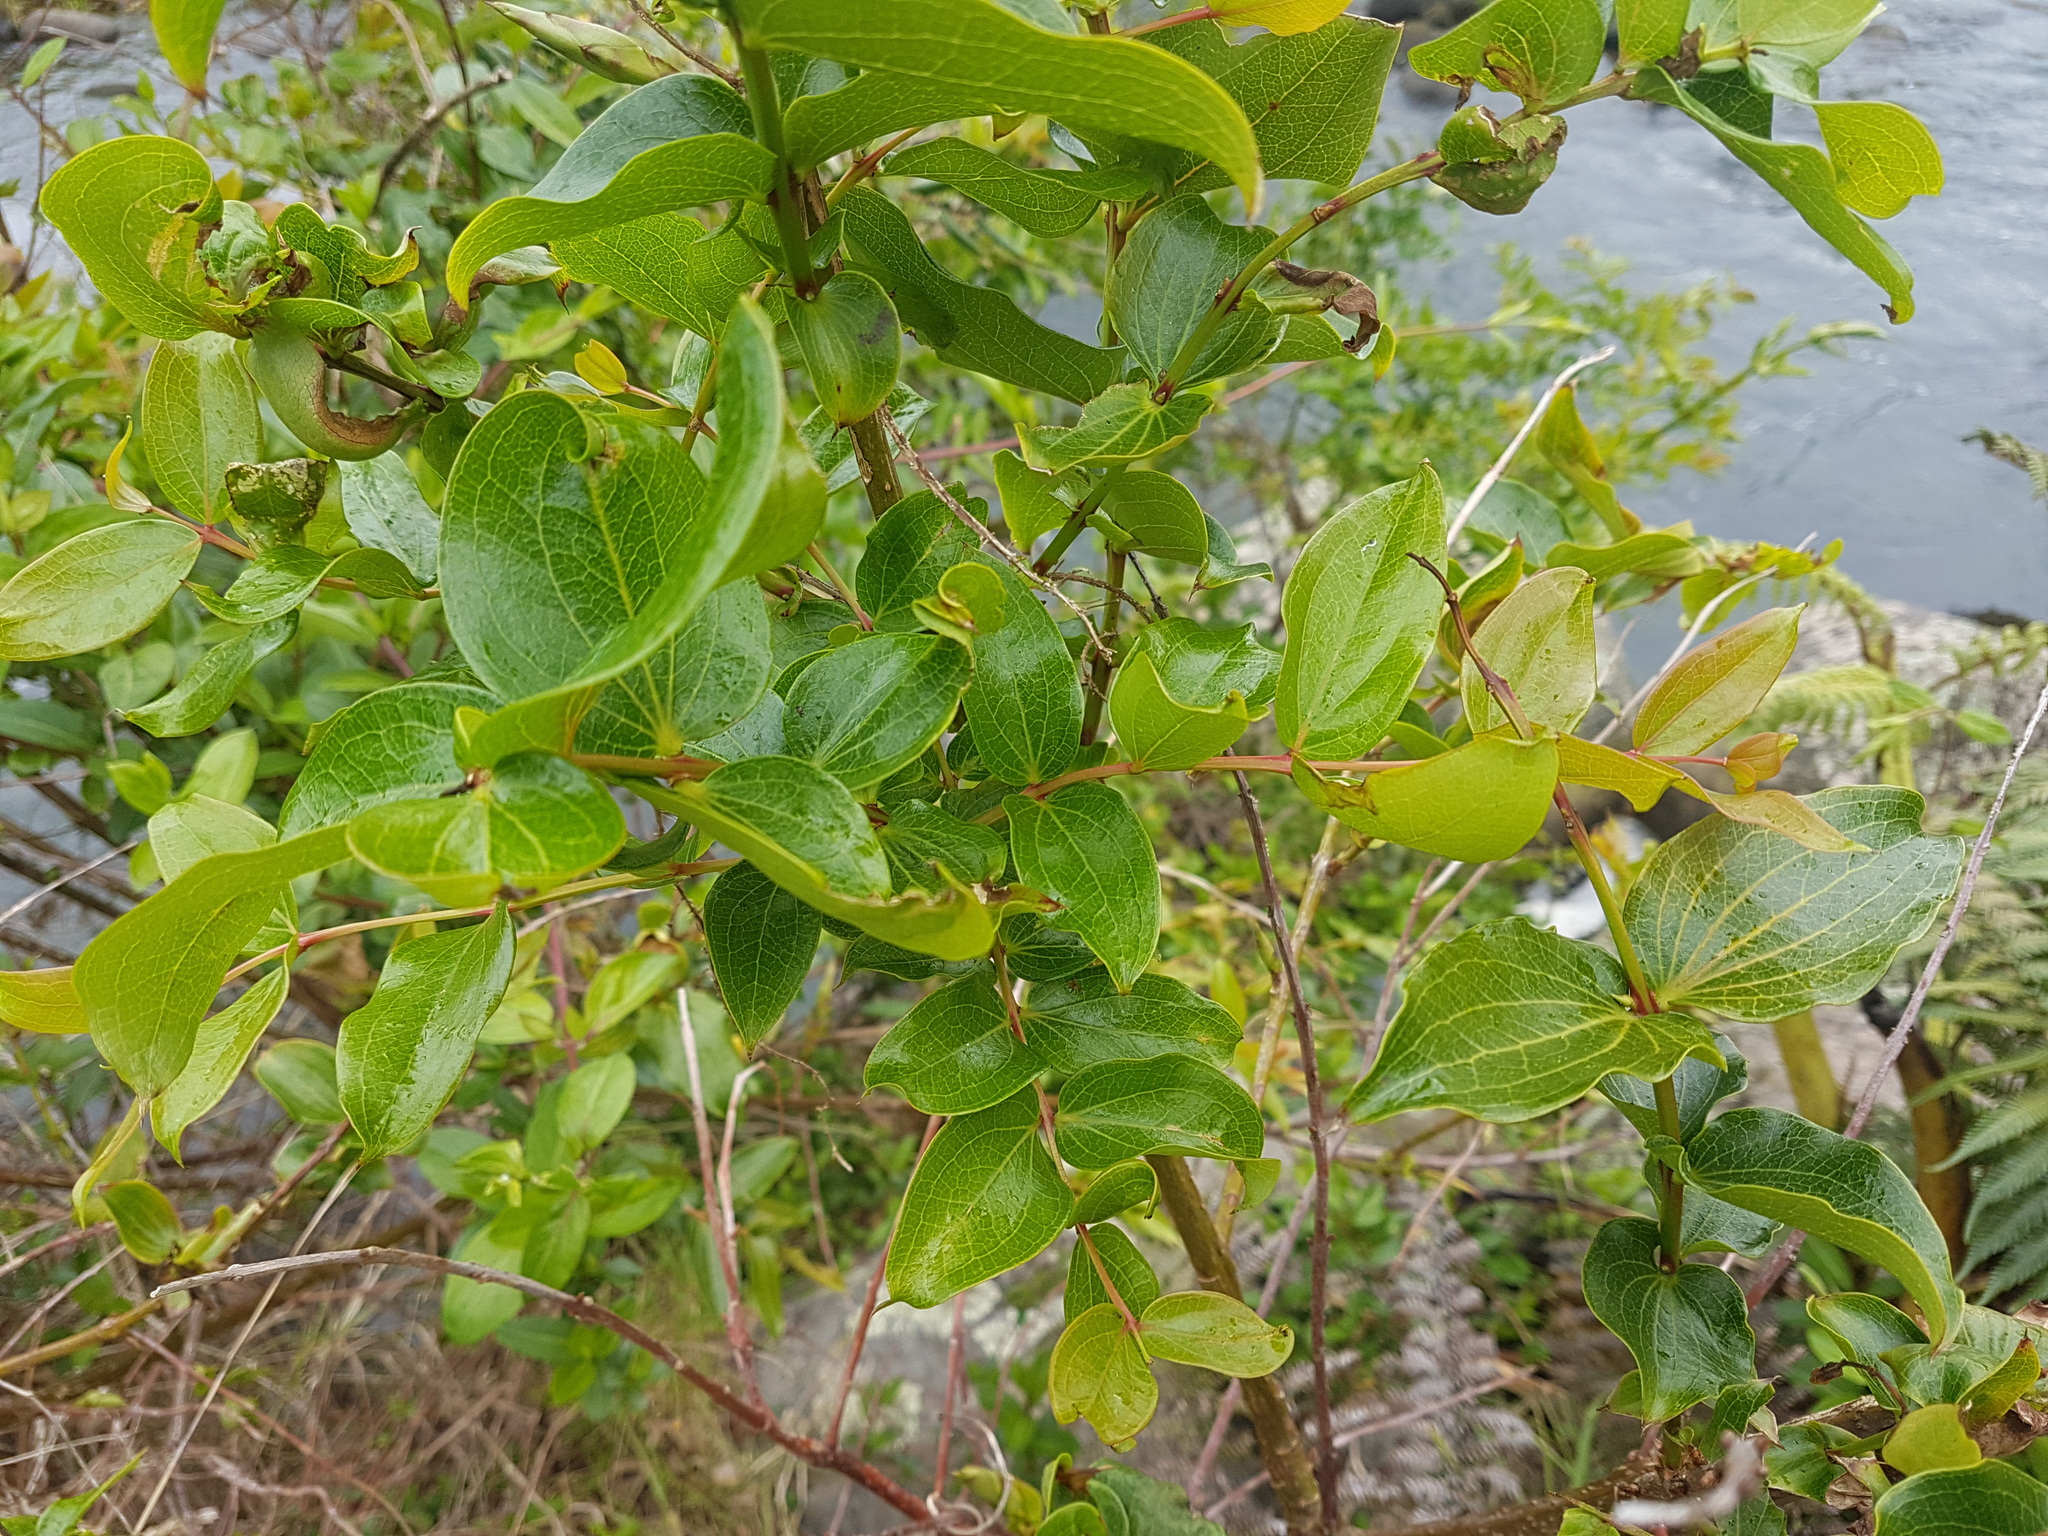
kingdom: Plantae
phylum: Tracheophyta
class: Magnoliopsida
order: Cucurbitales
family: Coriariaceae
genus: Coriaria
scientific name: Coriaria arborea
